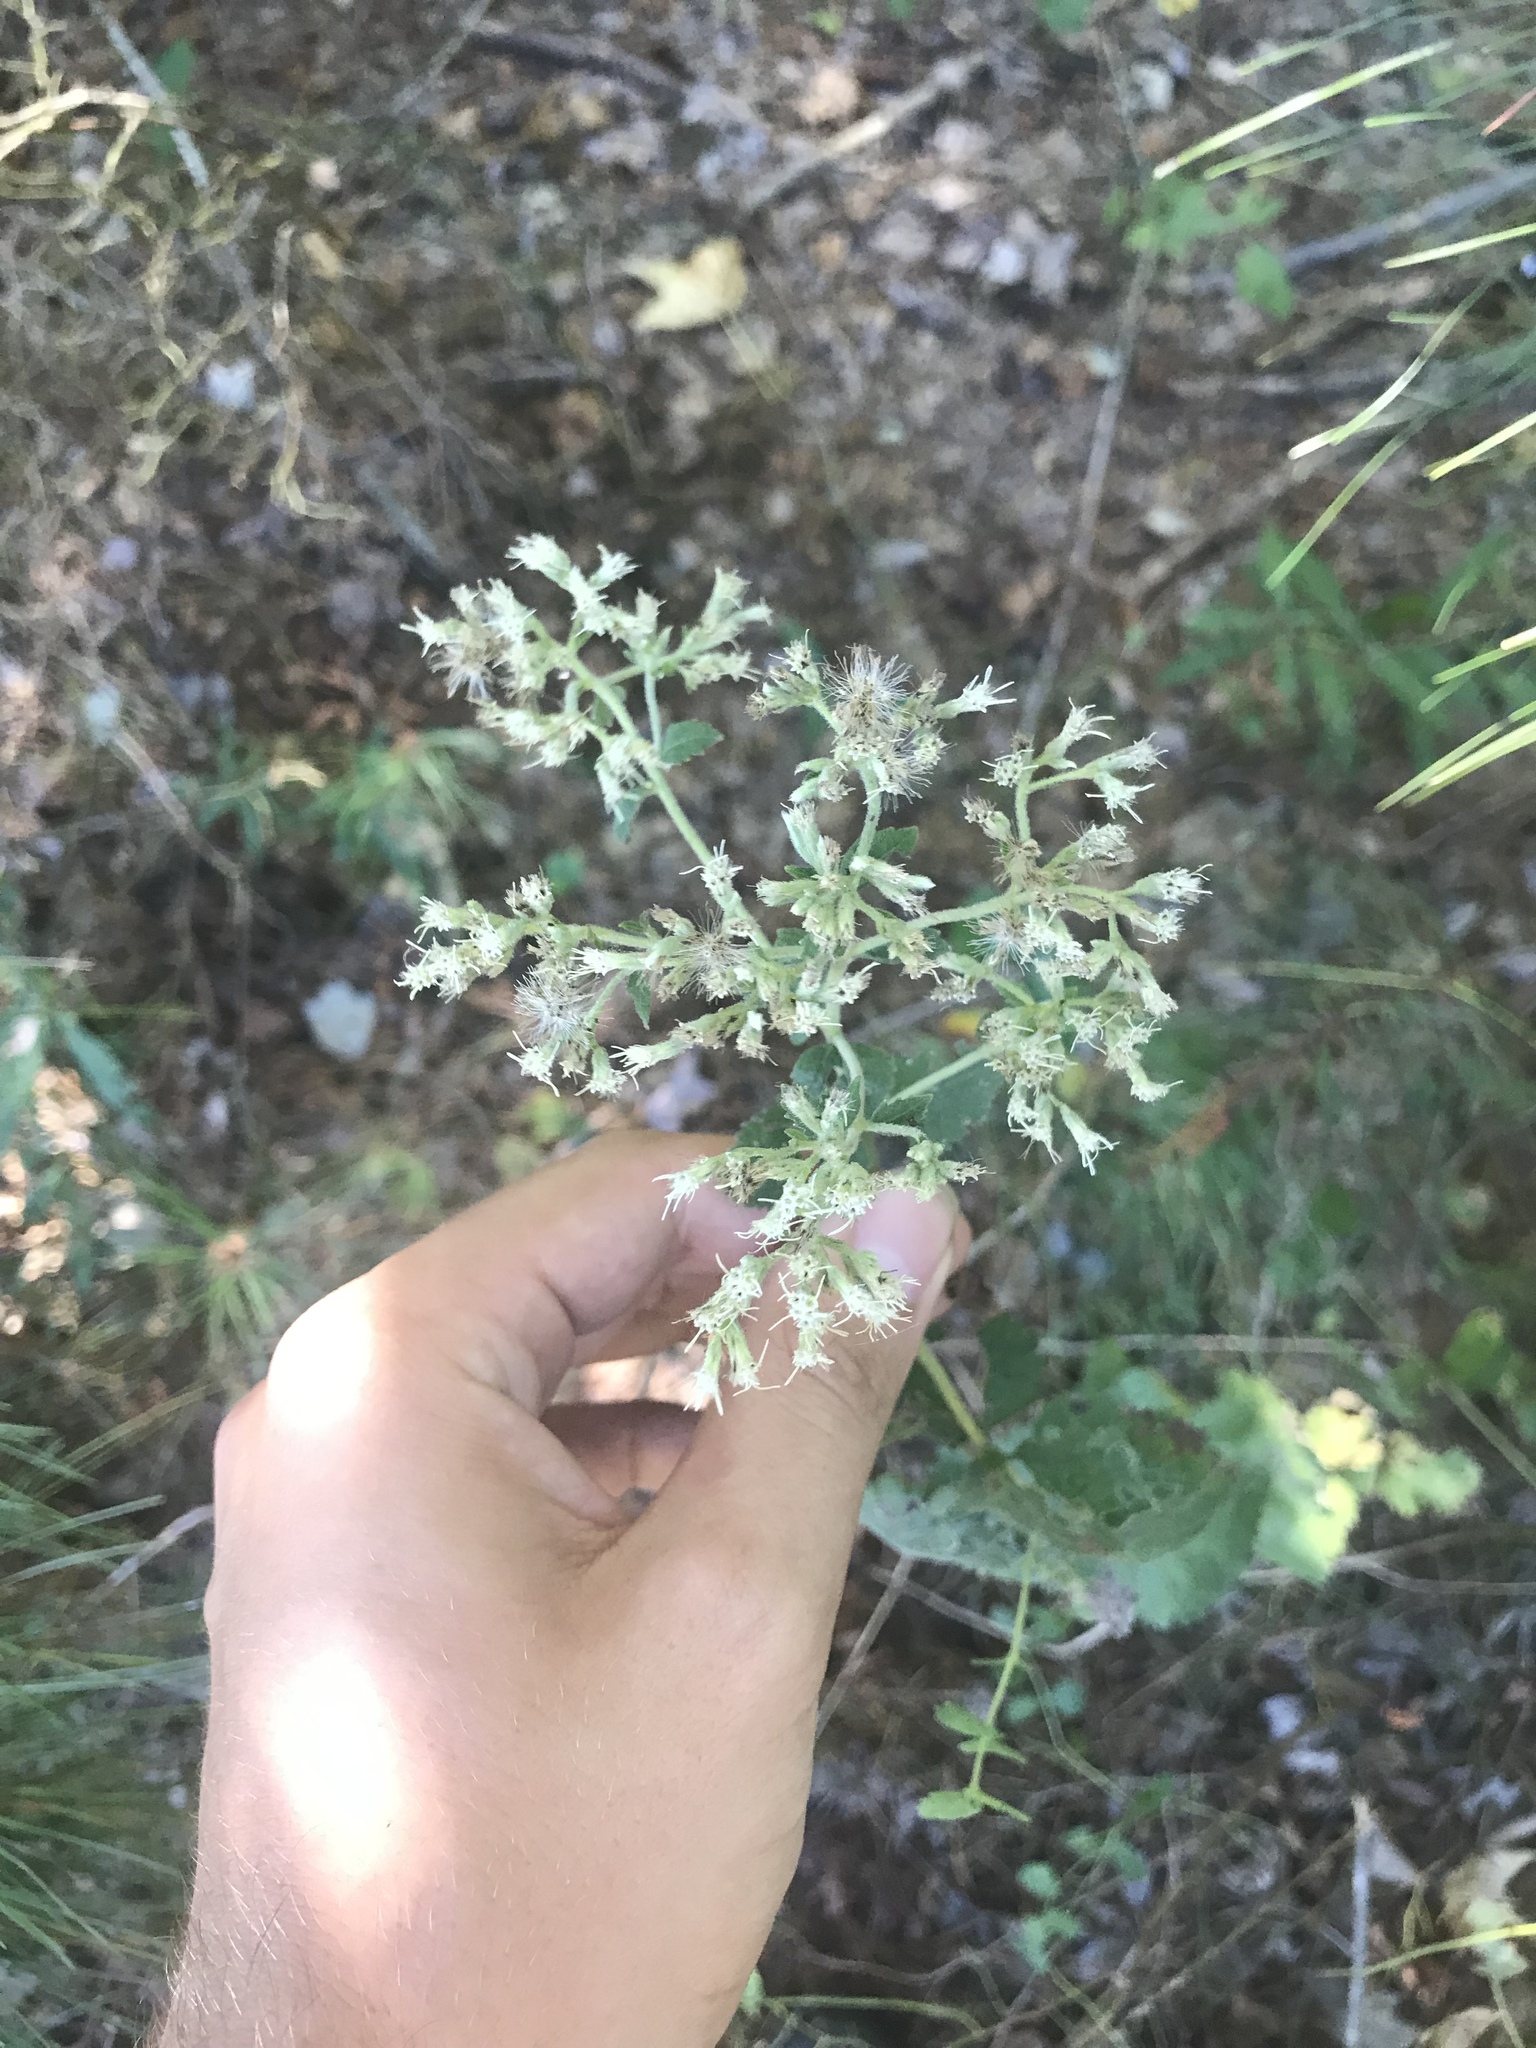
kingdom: Plantae
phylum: Tracheophyta
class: Magnoliopsida
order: Asterales
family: Asteraceae
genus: Eupatorium
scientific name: Eupatorium rotundifolium
